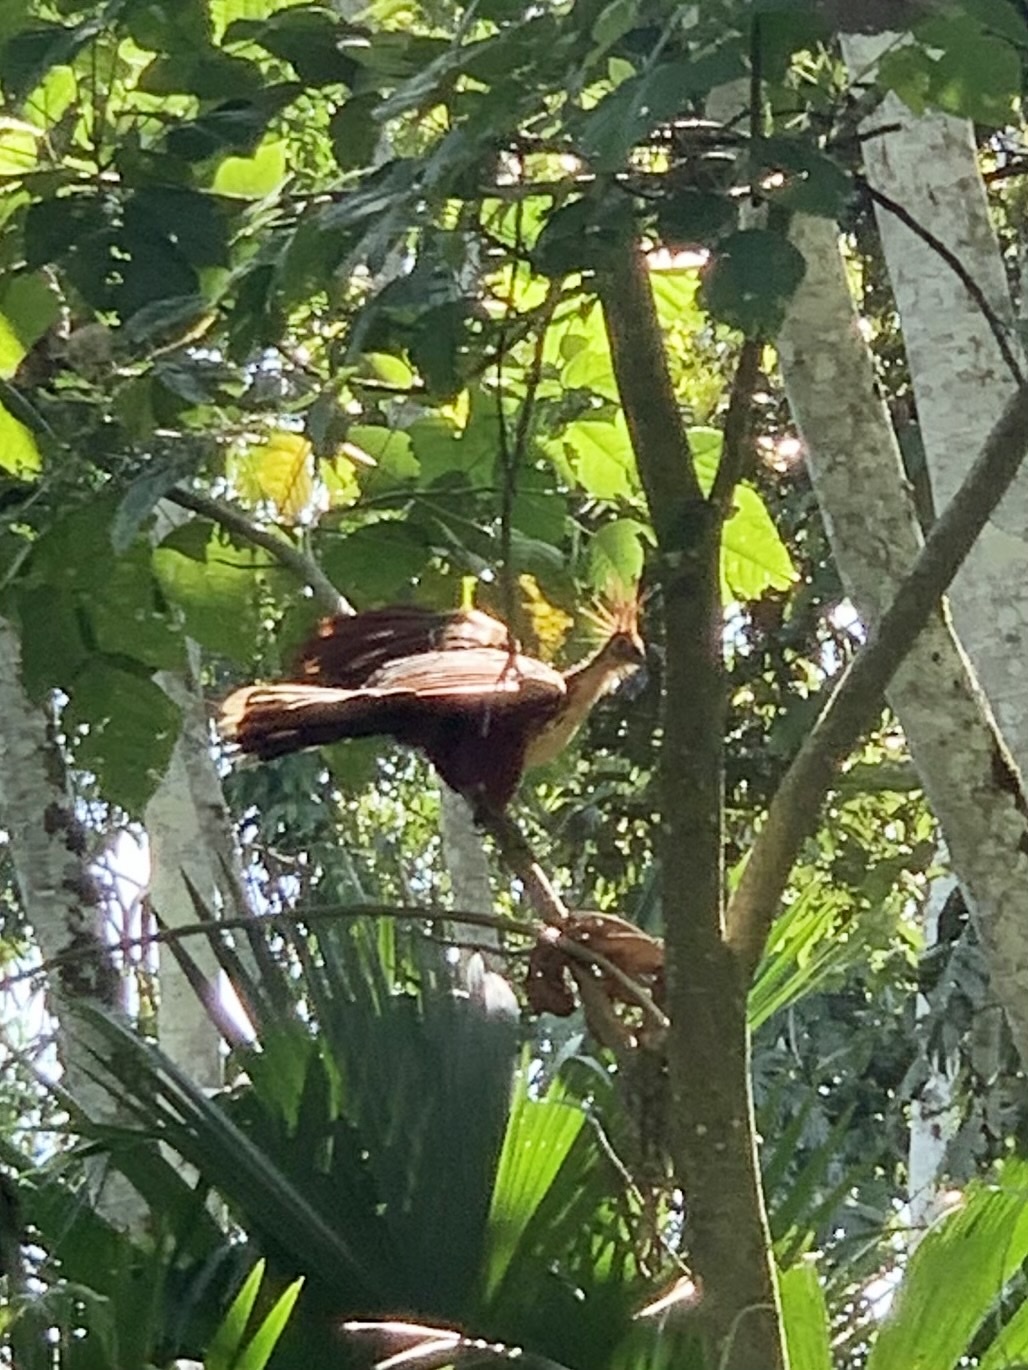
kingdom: Animalia
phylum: Chordata
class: Aves
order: Opisthocomiformes
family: Opisthocomidae
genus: Opisthocomus
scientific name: Opisthocomus hoazin
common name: Hoatzin
